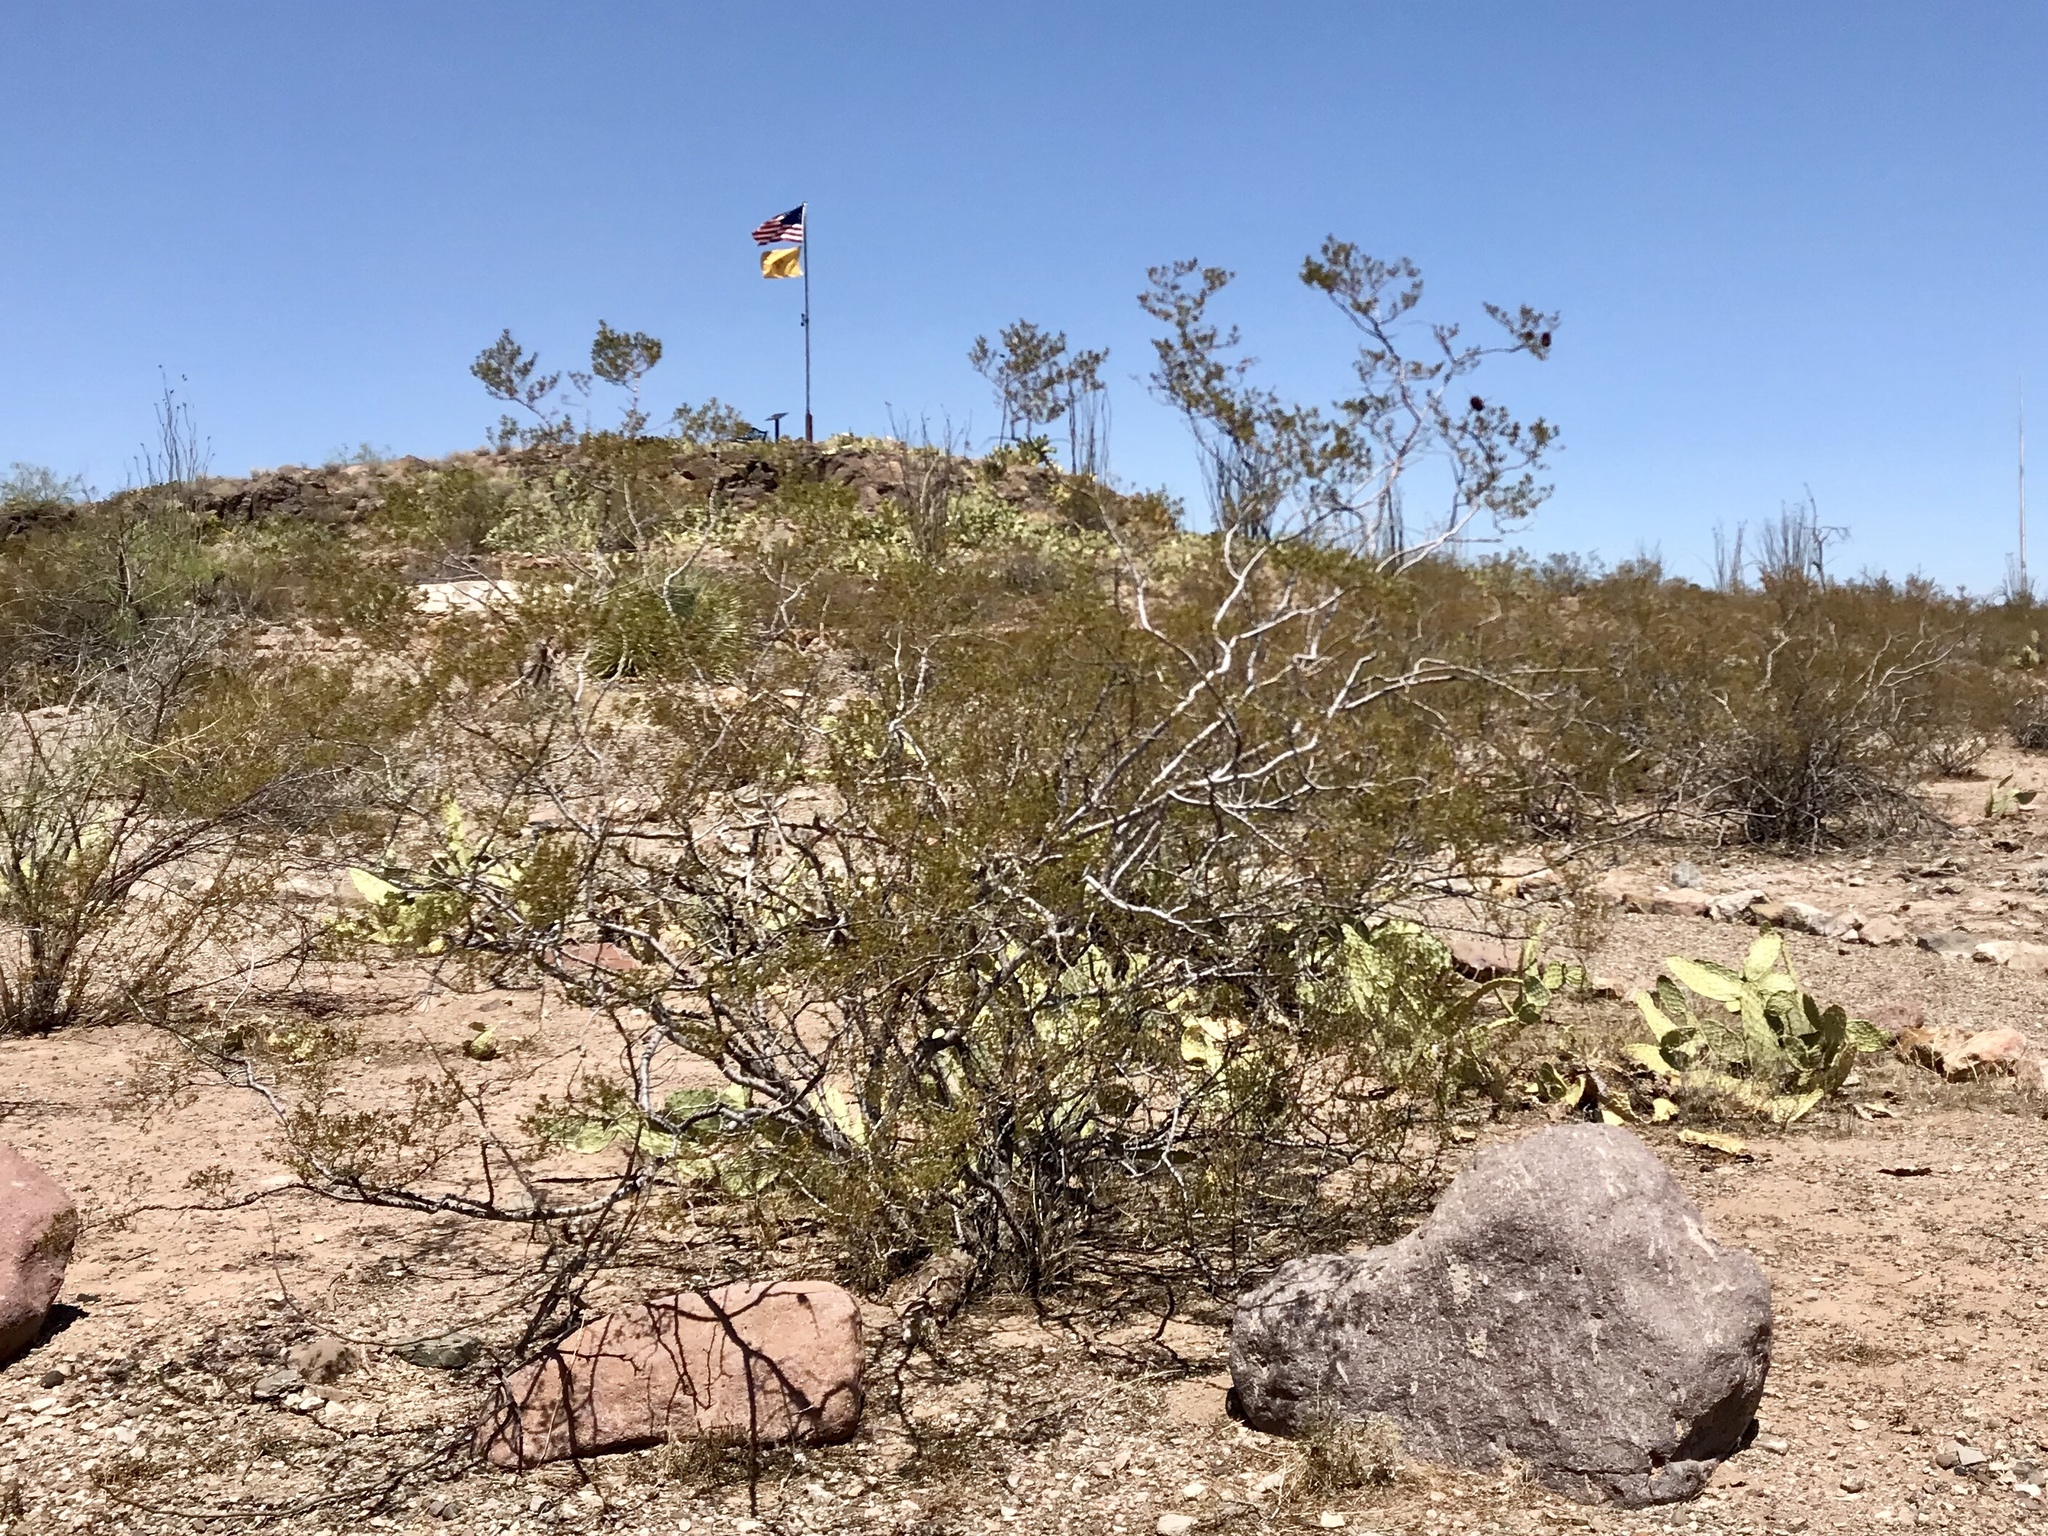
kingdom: Plantae
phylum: Tracheophyta
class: Magnoliopsida
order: Zygophyllales
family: Zygophyllaceae
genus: Larrea
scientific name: Larrea tridentata
